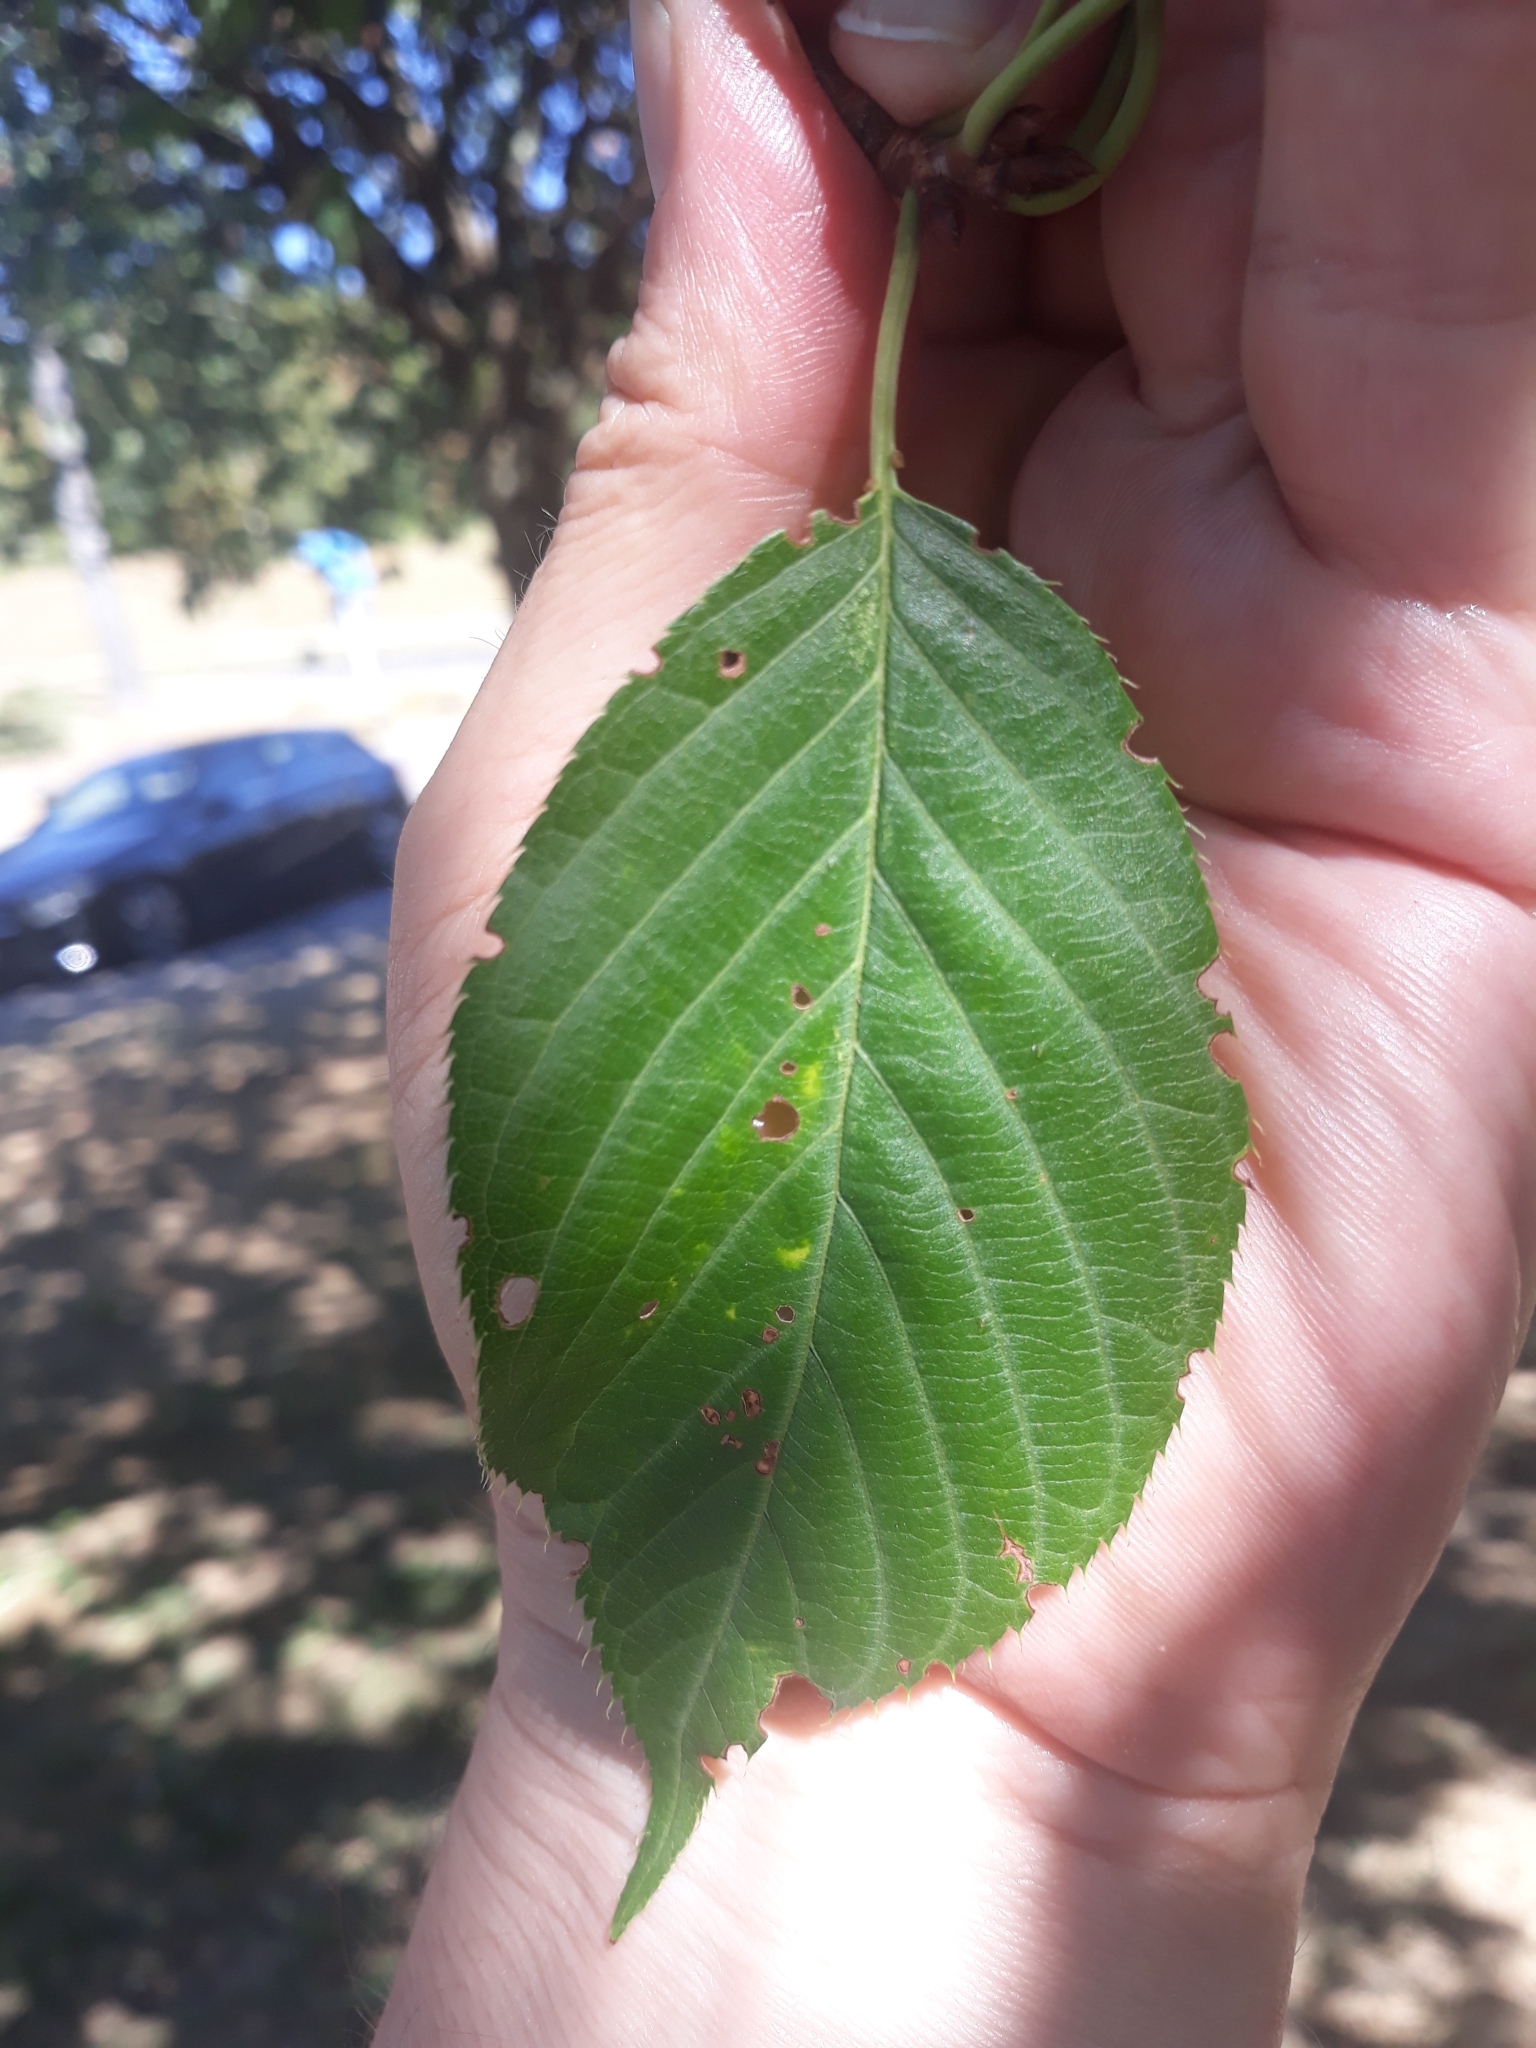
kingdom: Plantae
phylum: Tracheophyta
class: Magnoliopsida
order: Rosales
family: Rosaceae
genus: Prunus
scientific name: Prunus avium
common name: Sweet cherry
